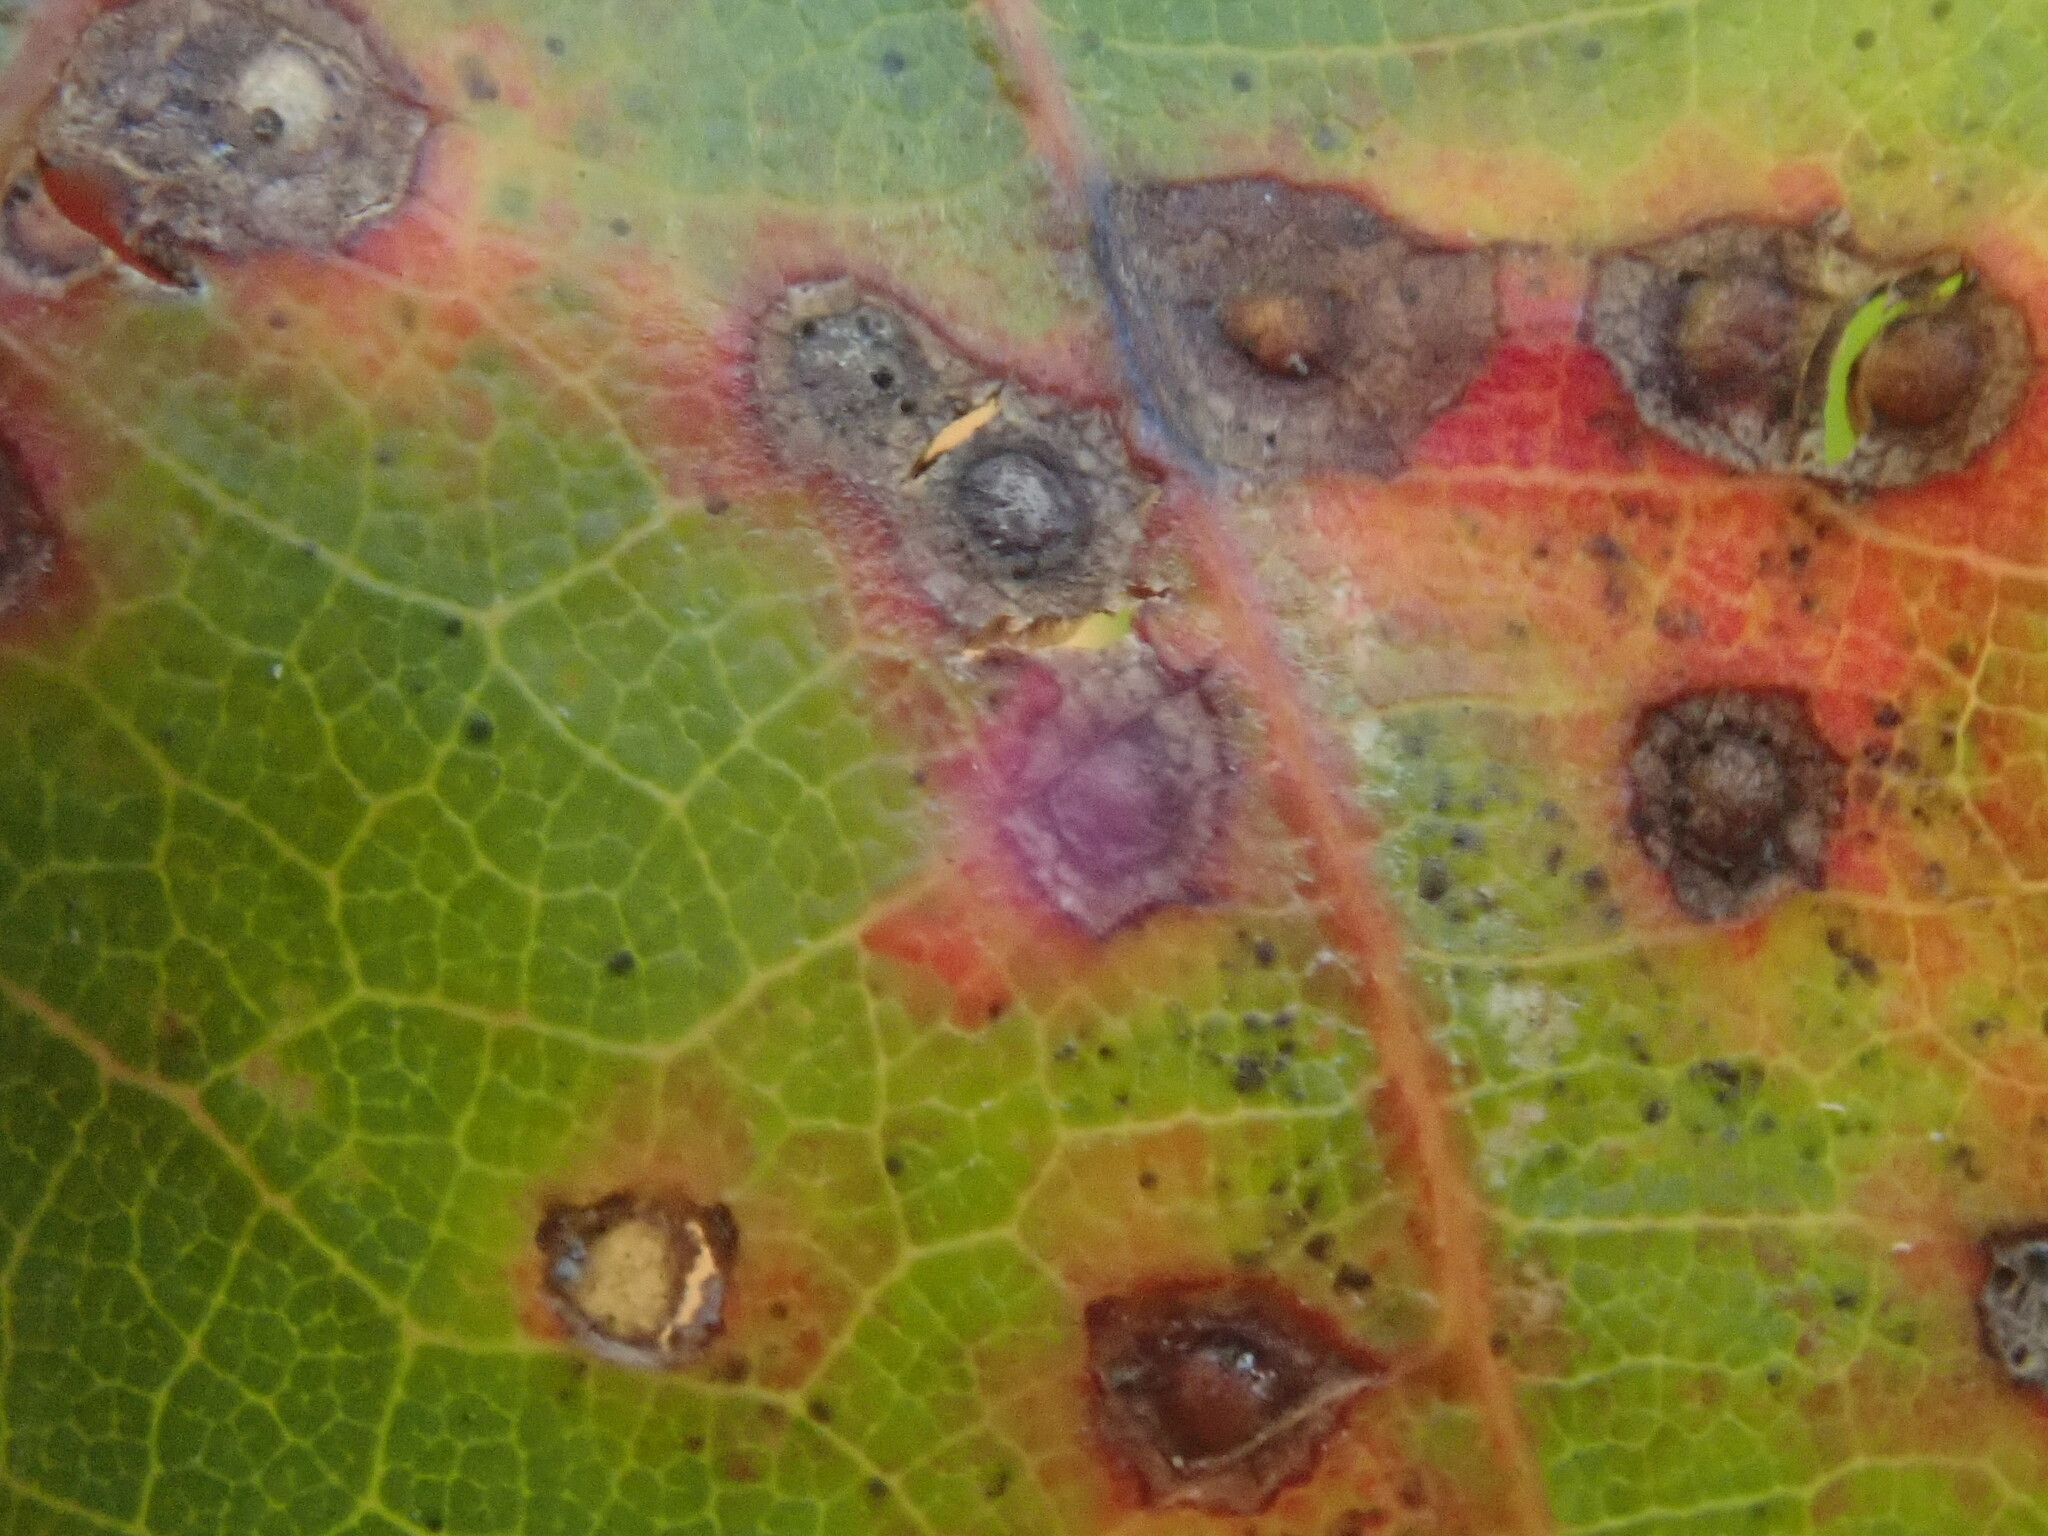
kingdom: Animalia
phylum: Arthropoda
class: Insecta
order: Hymenoptera
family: Cynipidae
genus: Neuroterus
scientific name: Neuroterus
